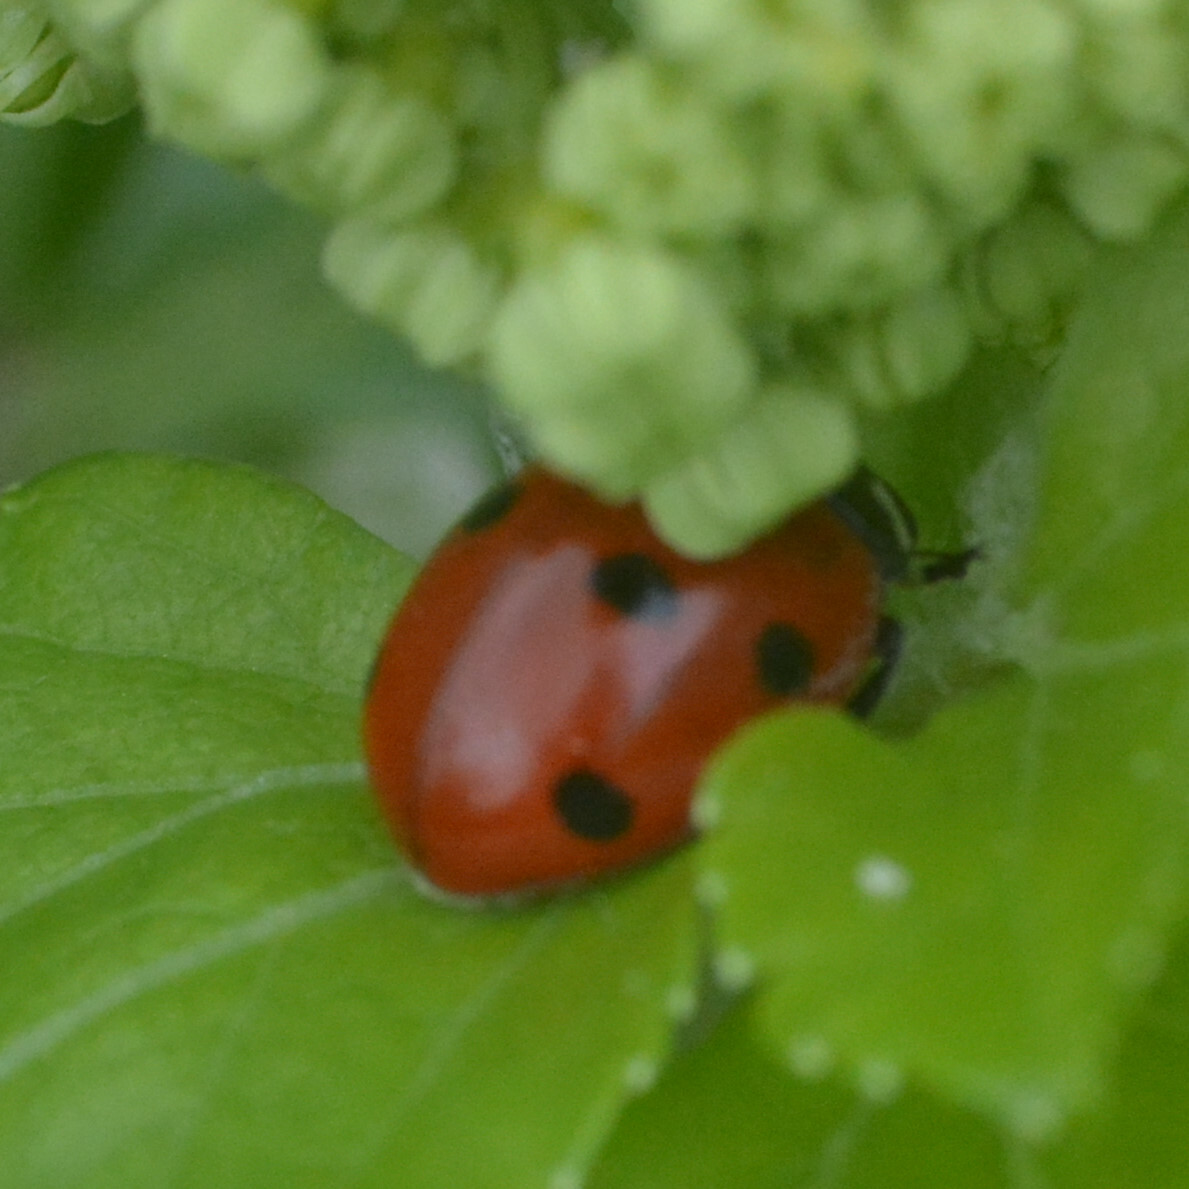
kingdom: Animalia
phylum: Arthropoda
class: Insecta
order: Coleoptera
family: Coccinellidae
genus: Coccinella
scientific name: Coccinella septempunctata
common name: Sevenspotted lady beetle
